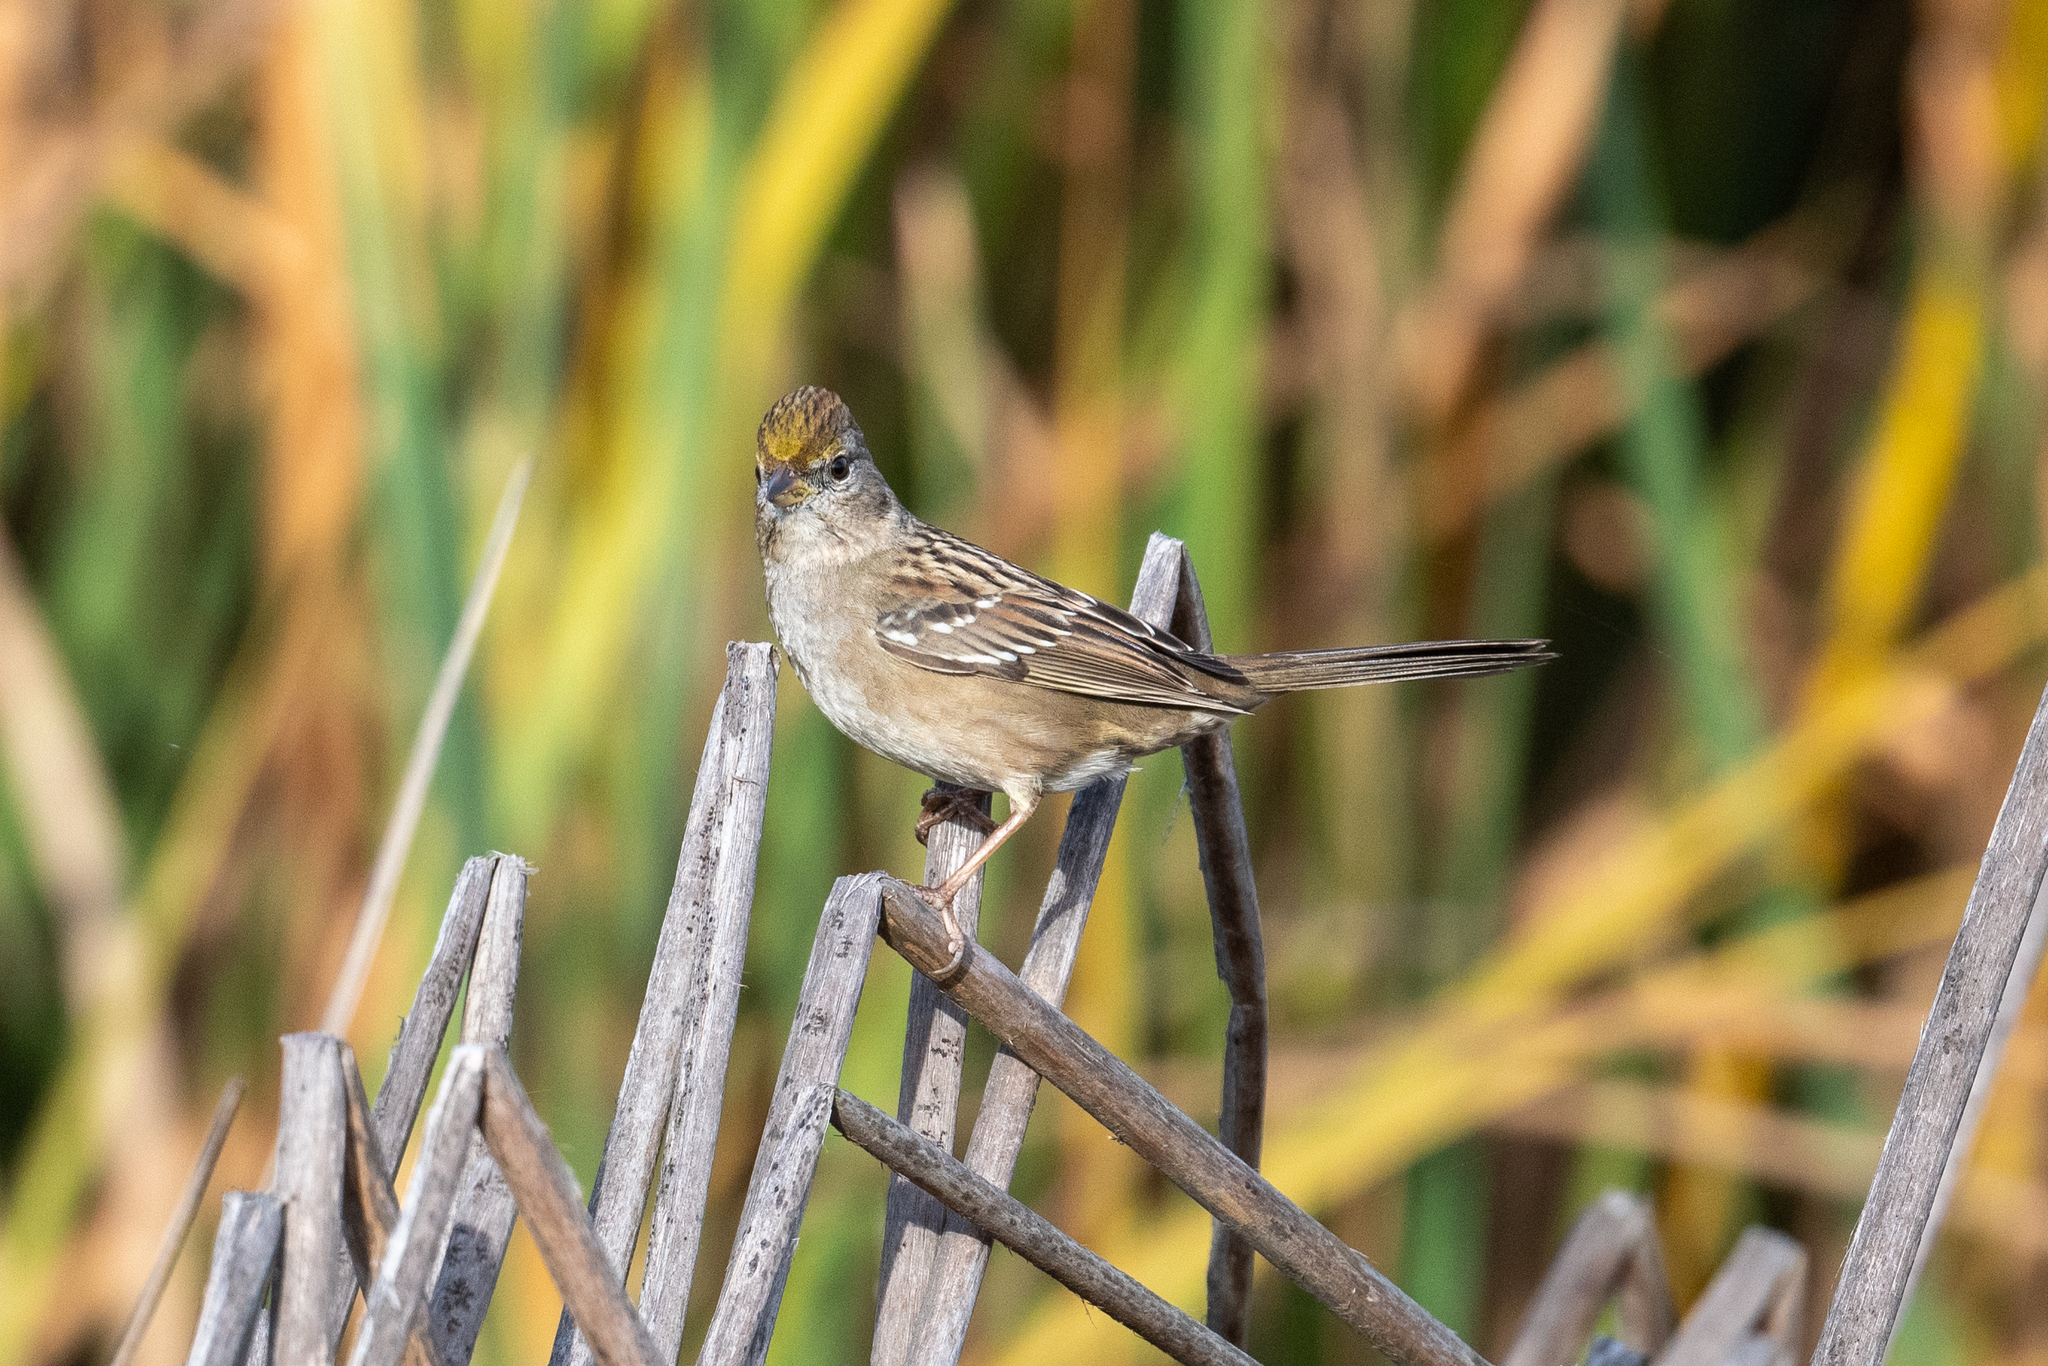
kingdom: Animalia
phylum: Chordata
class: Aves
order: Passeriformes
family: Passerellidae
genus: Zonotrichia
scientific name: Zonotrichia atricapilla
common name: Golden-crowned sparrow
